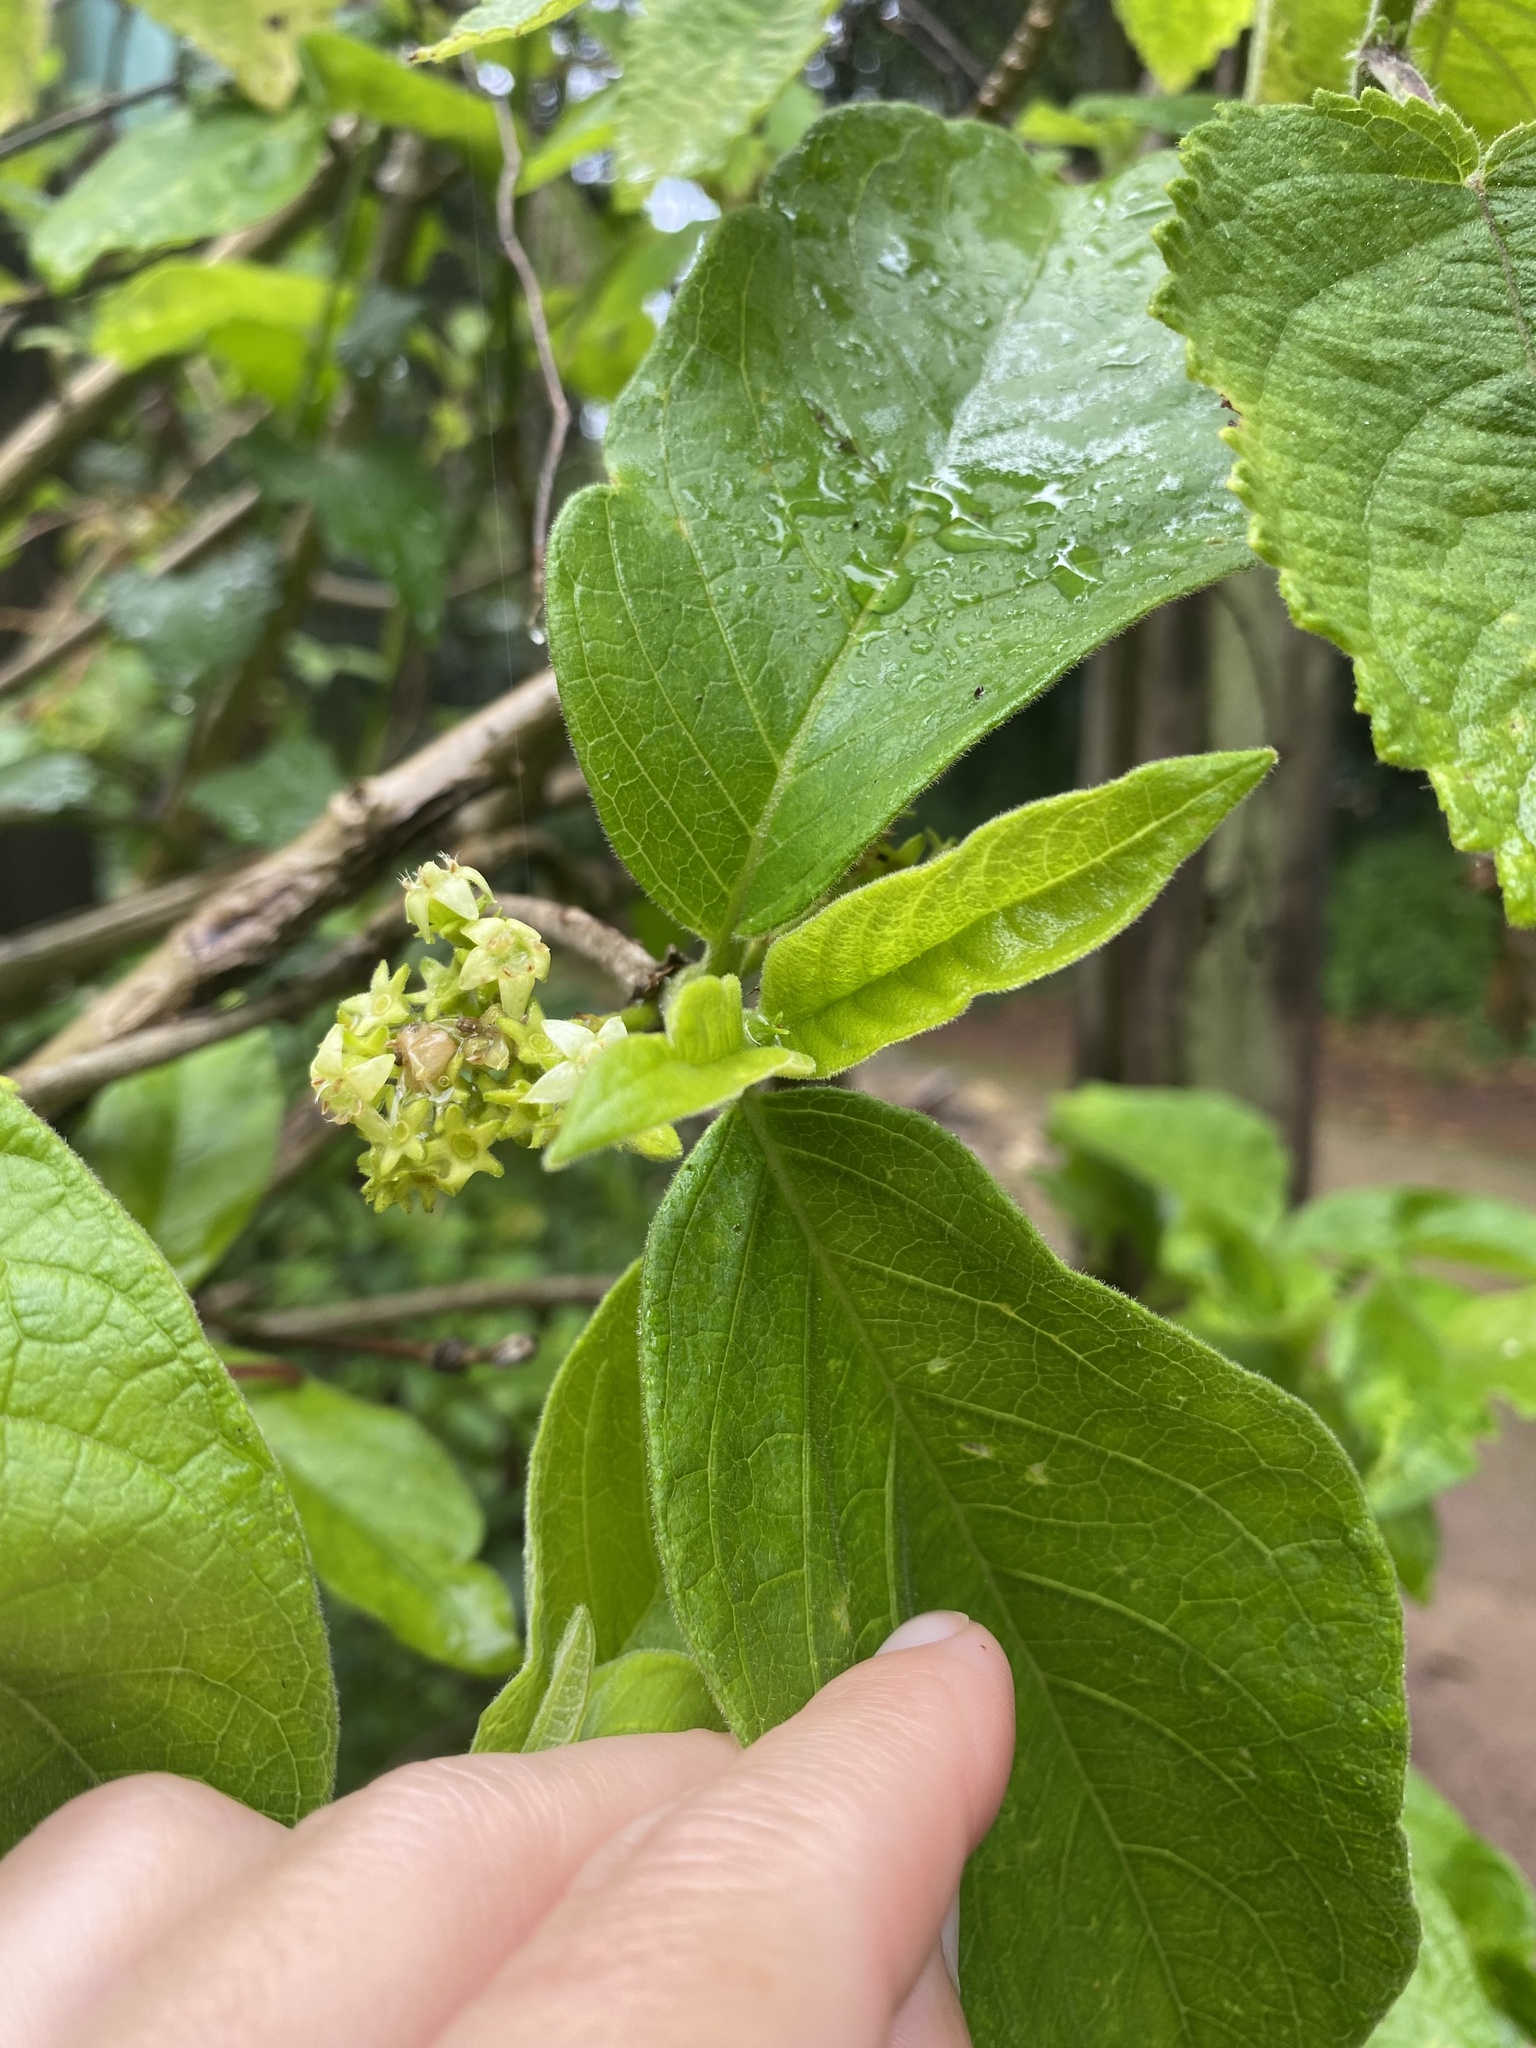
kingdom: Plantae
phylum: Tracheophyta
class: Magnoliopsida
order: Gentianales
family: Rubiaceae
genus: Vangueria
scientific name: Vangueria infausta
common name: Medlar
